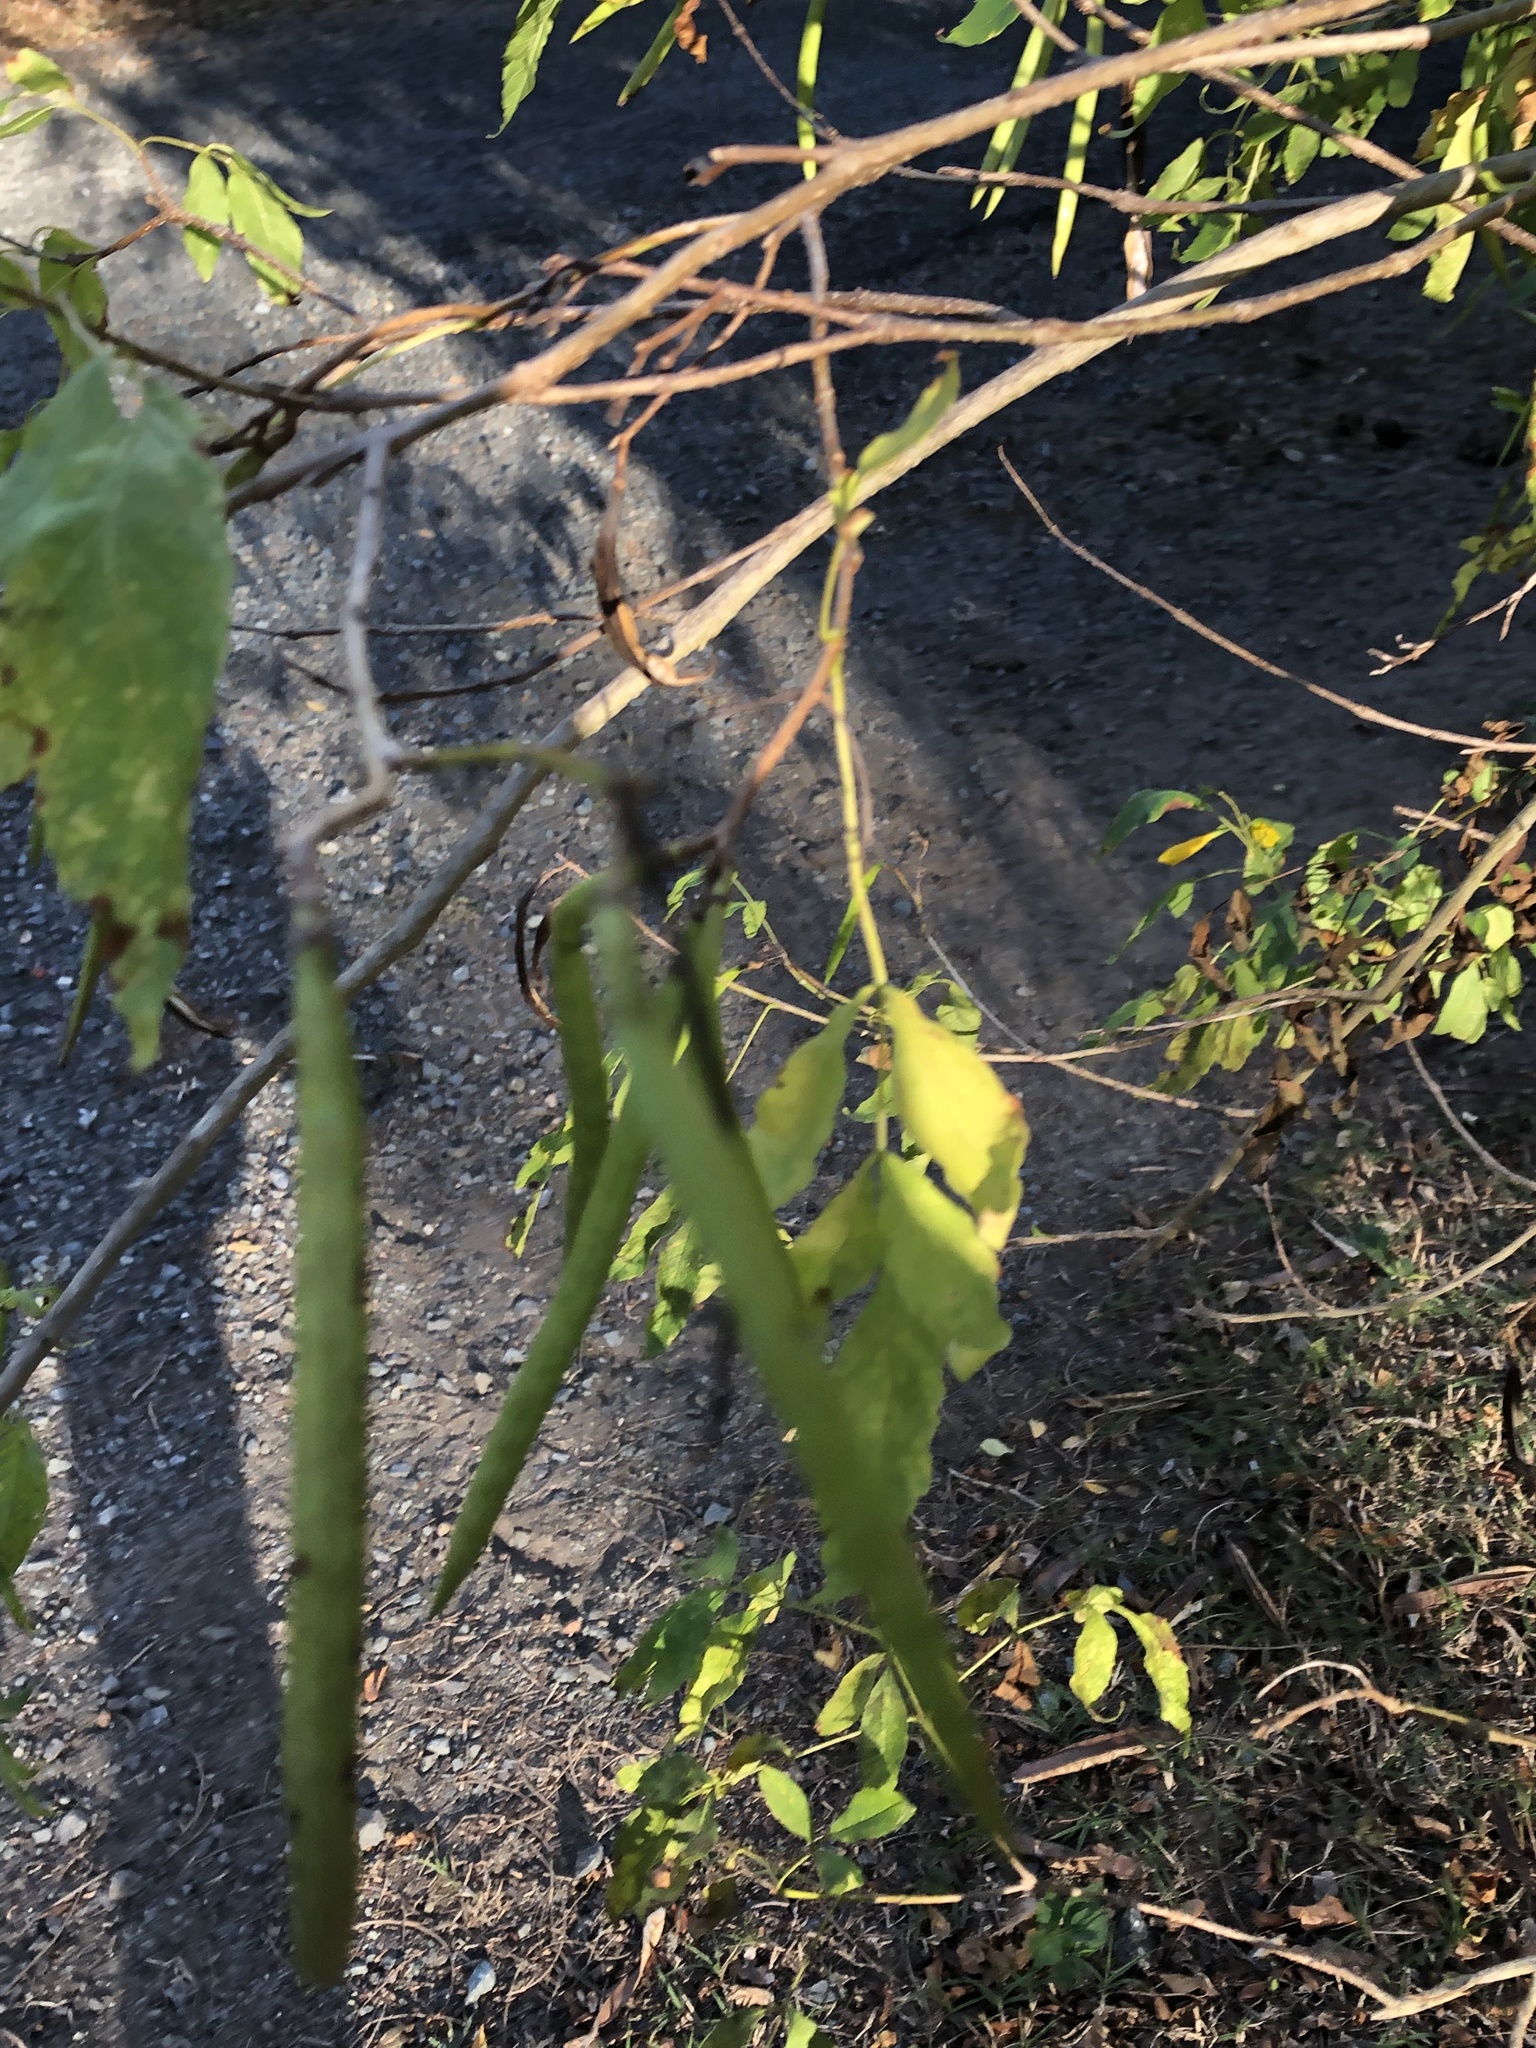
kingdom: Plantae
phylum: Tracheophyta
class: Magnoliopsida
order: Lamiales
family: Bignoniaceae
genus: Tecoma
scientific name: Tecoma stans
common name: Yellow trumpetbush
